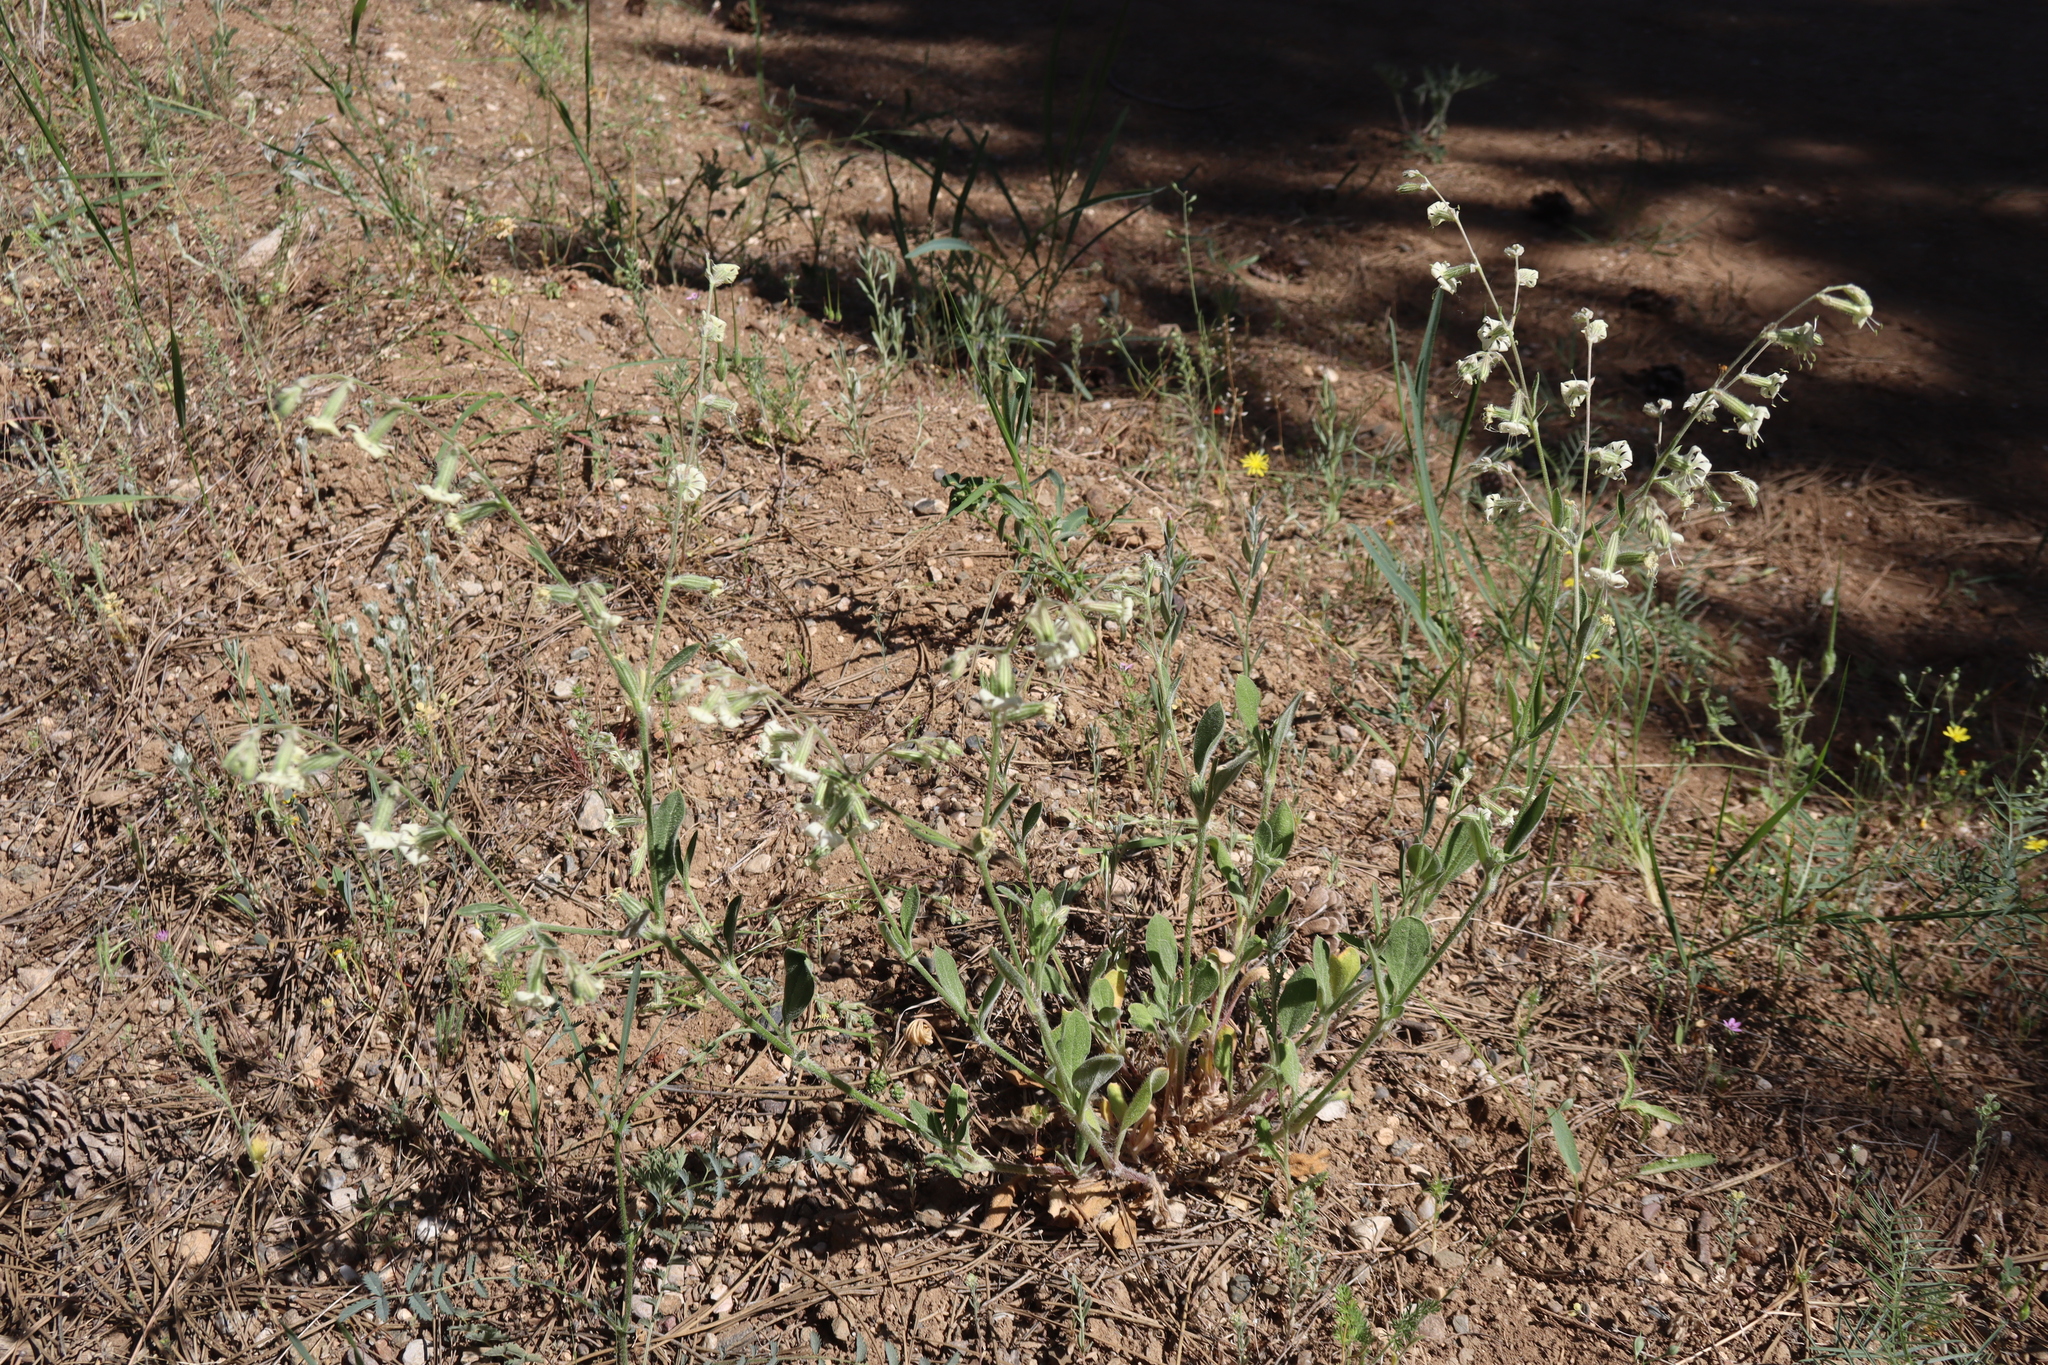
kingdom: Plantae
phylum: Tracheophyta
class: Magnoliopsida
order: Caryophyllales
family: Caryophyllaceae
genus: Silene
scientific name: Silene dichotoma
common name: Forked catchfly
